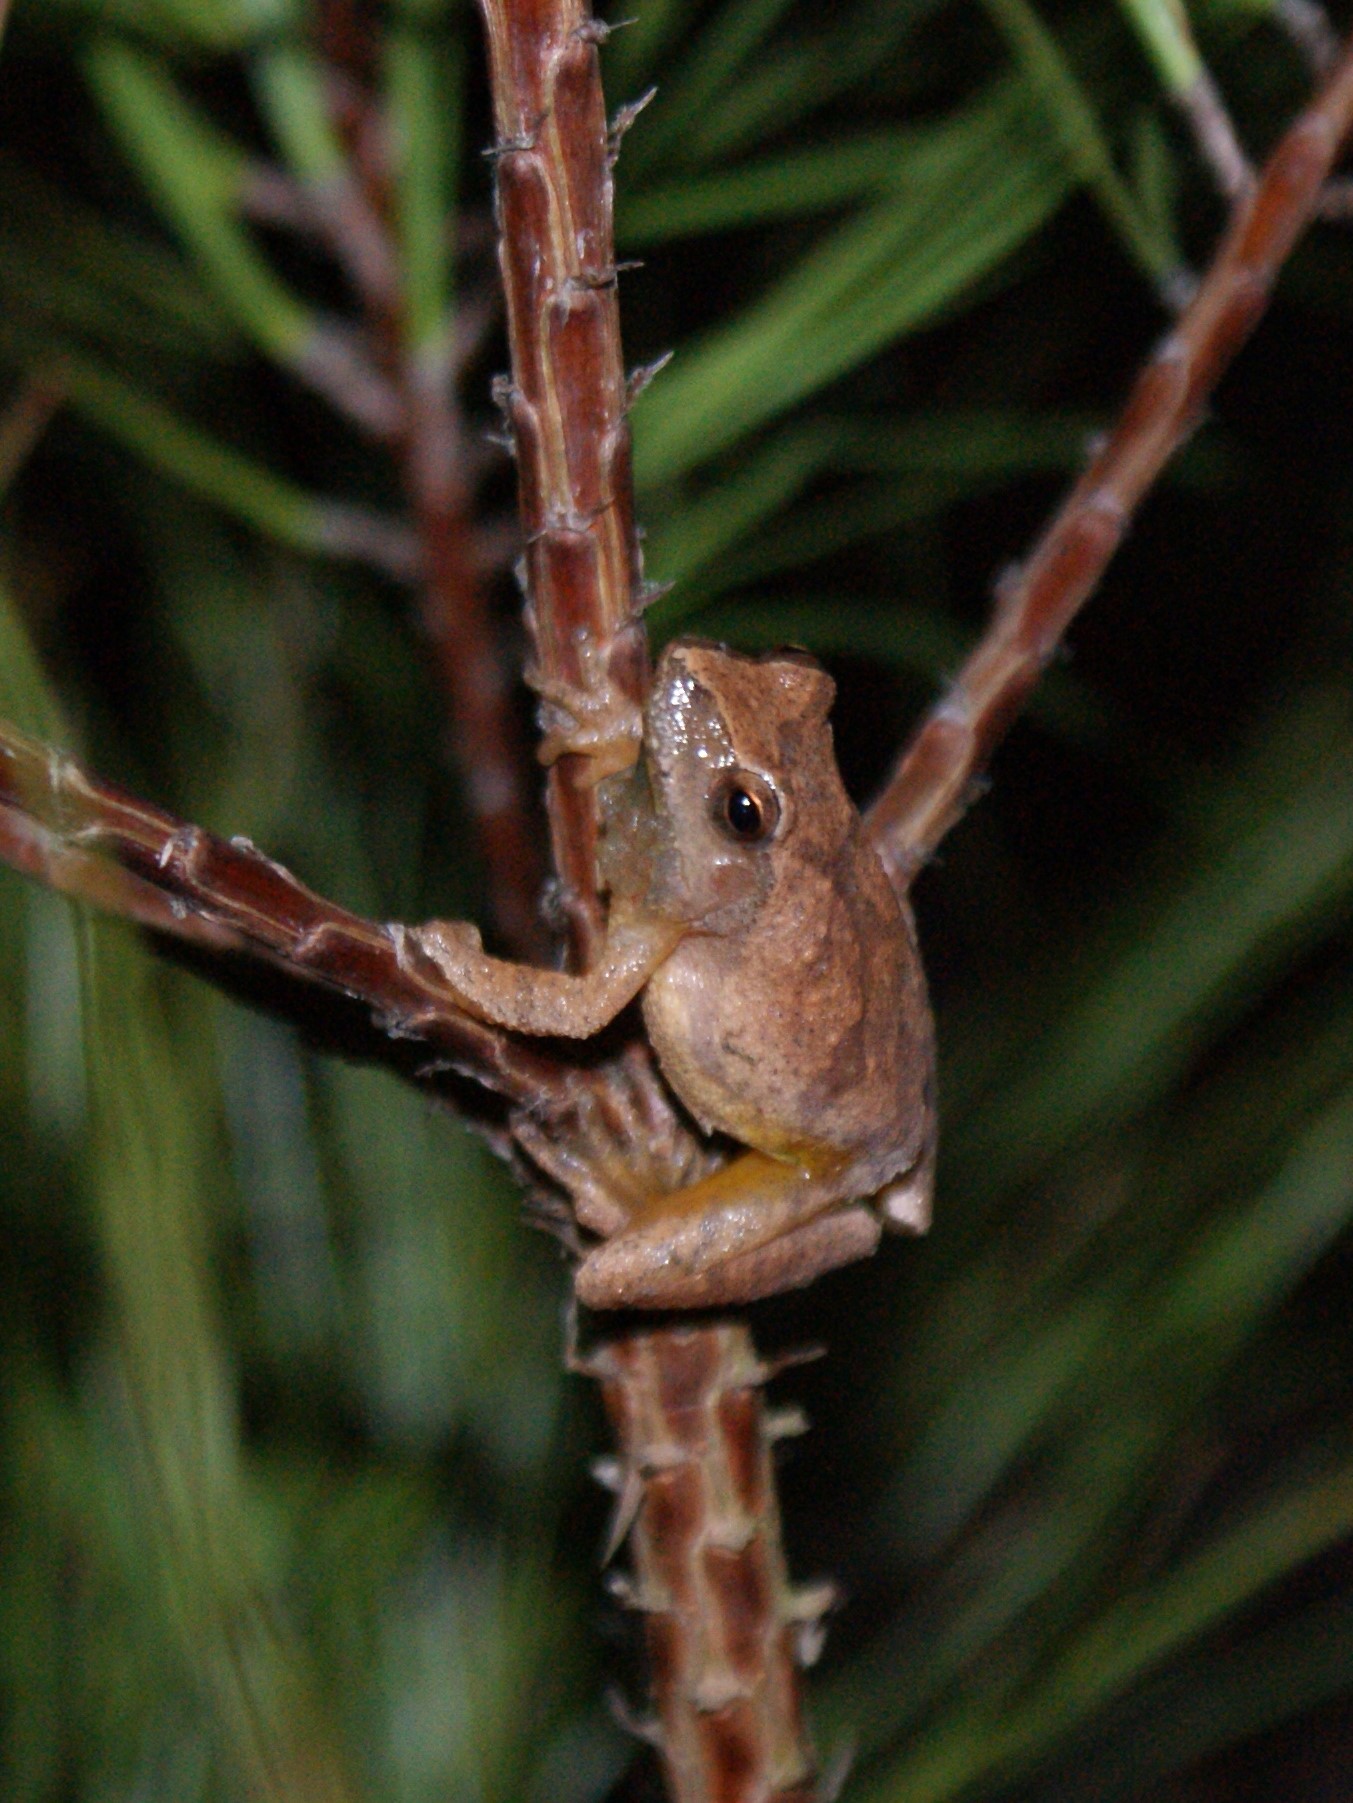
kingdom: Animalia
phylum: Chordata
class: Amphibia
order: Anura
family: Hylidae
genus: Pseudacris
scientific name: Pseudacris crucifer
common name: Spring peeper
